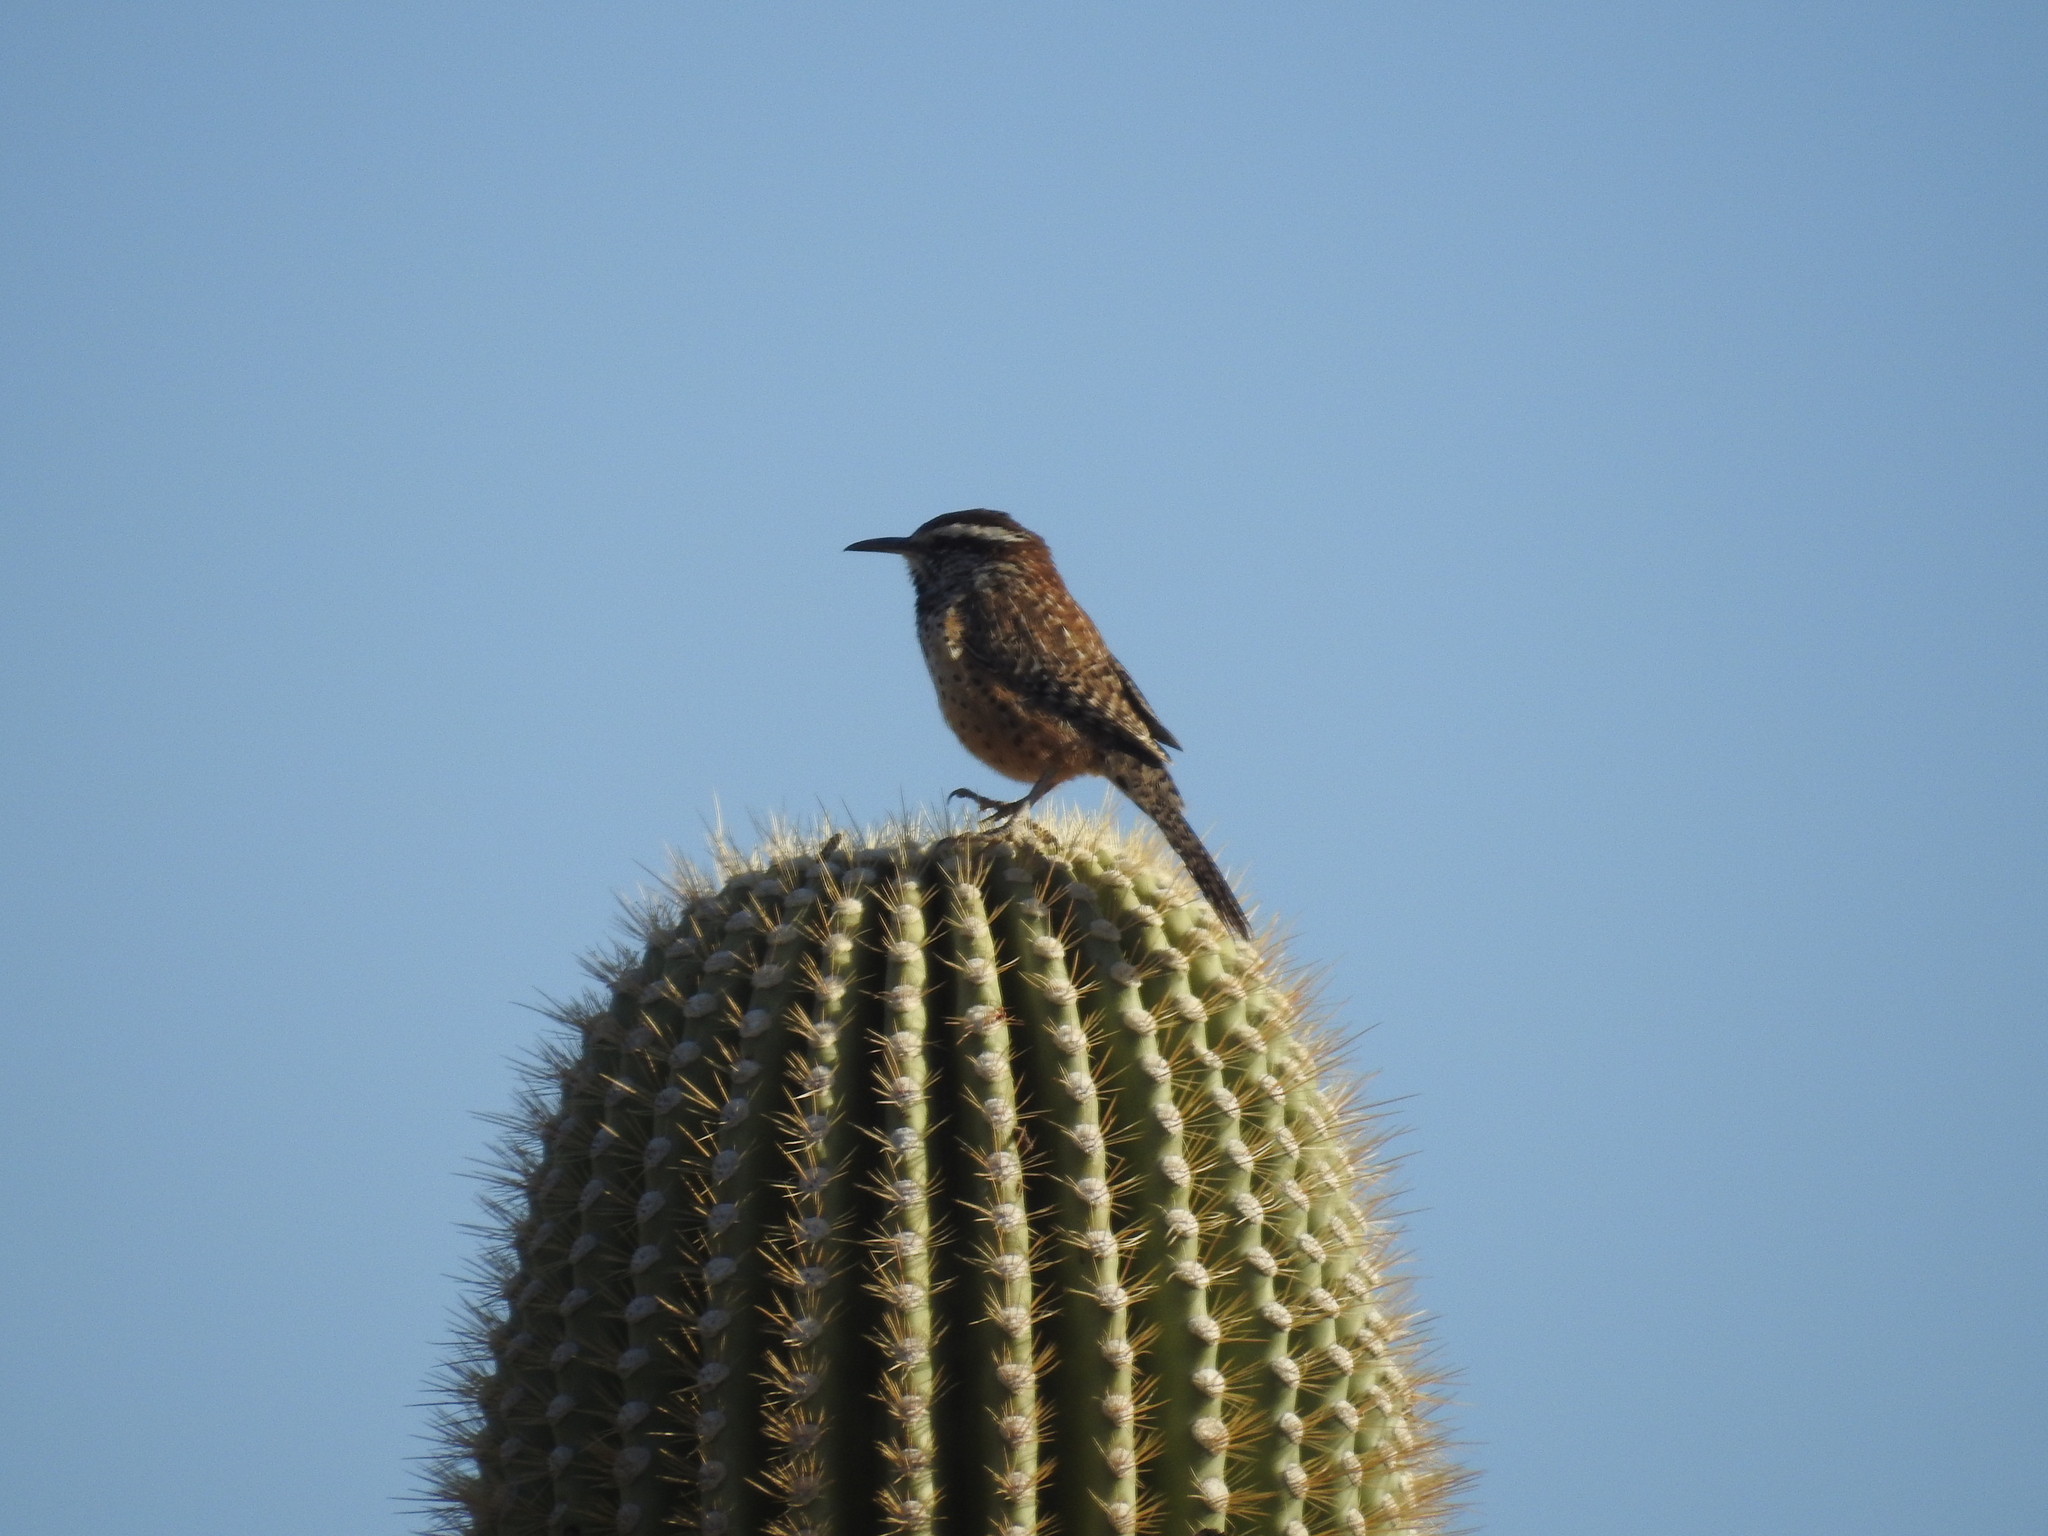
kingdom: Animalia
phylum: Chordata
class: Aves
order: Passeriformes
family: Troglodytidae
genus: Campylorhynchus
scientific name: Campylorhynchus brunneicapillus
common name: Cactus wren
